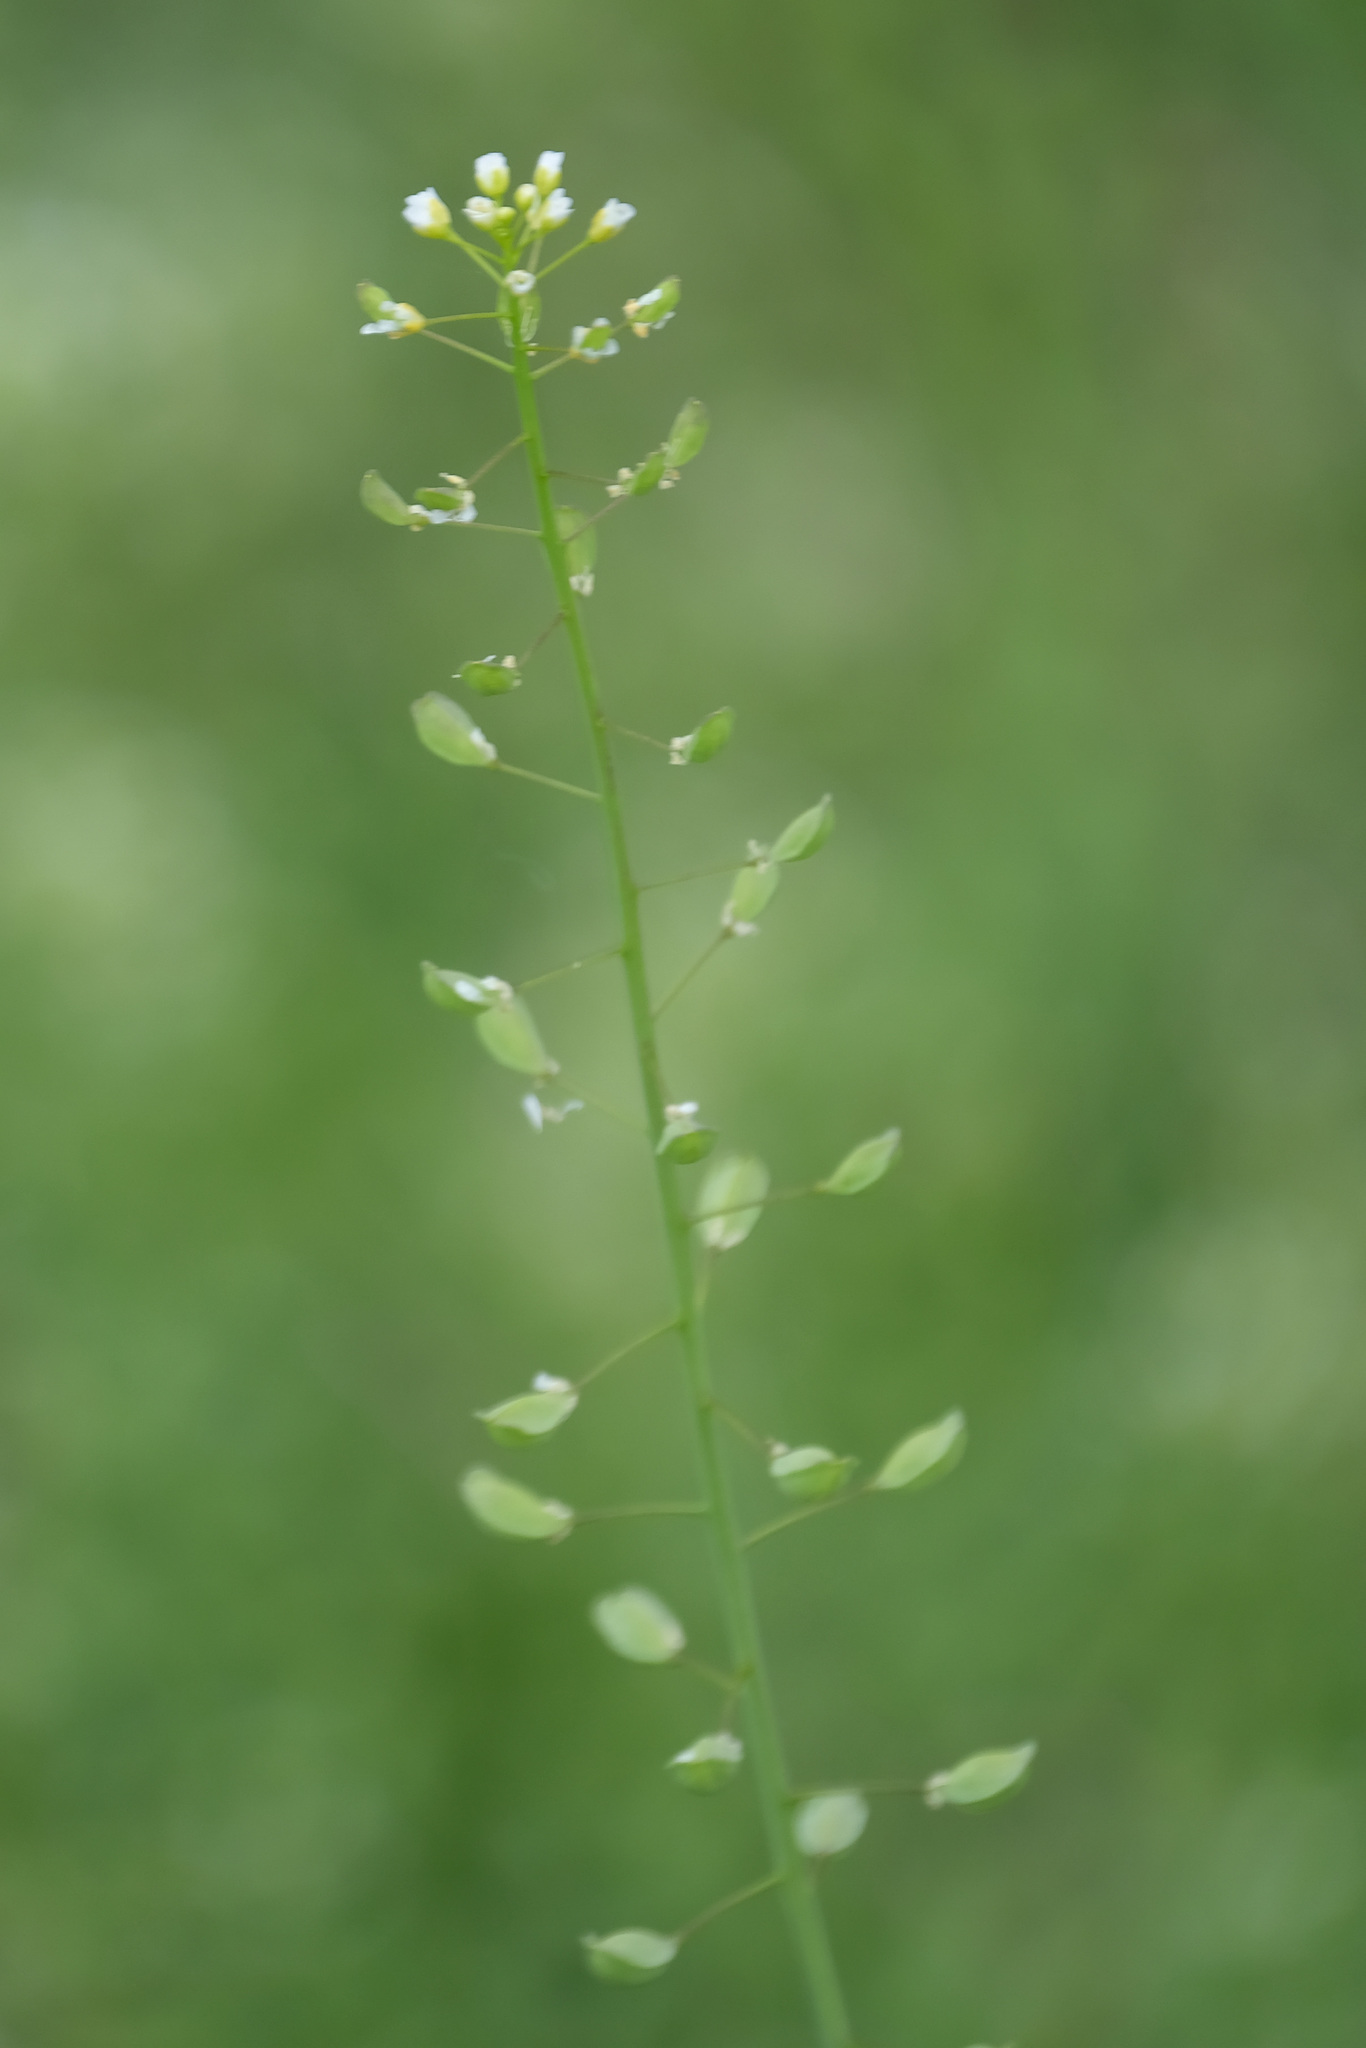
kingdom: Plantae
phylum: Tracheophyta
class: Magnoliopsida
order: Brassicales
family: Brassicaceae
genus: Mummenhoffia
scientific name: Mummenhoffia alliacea
